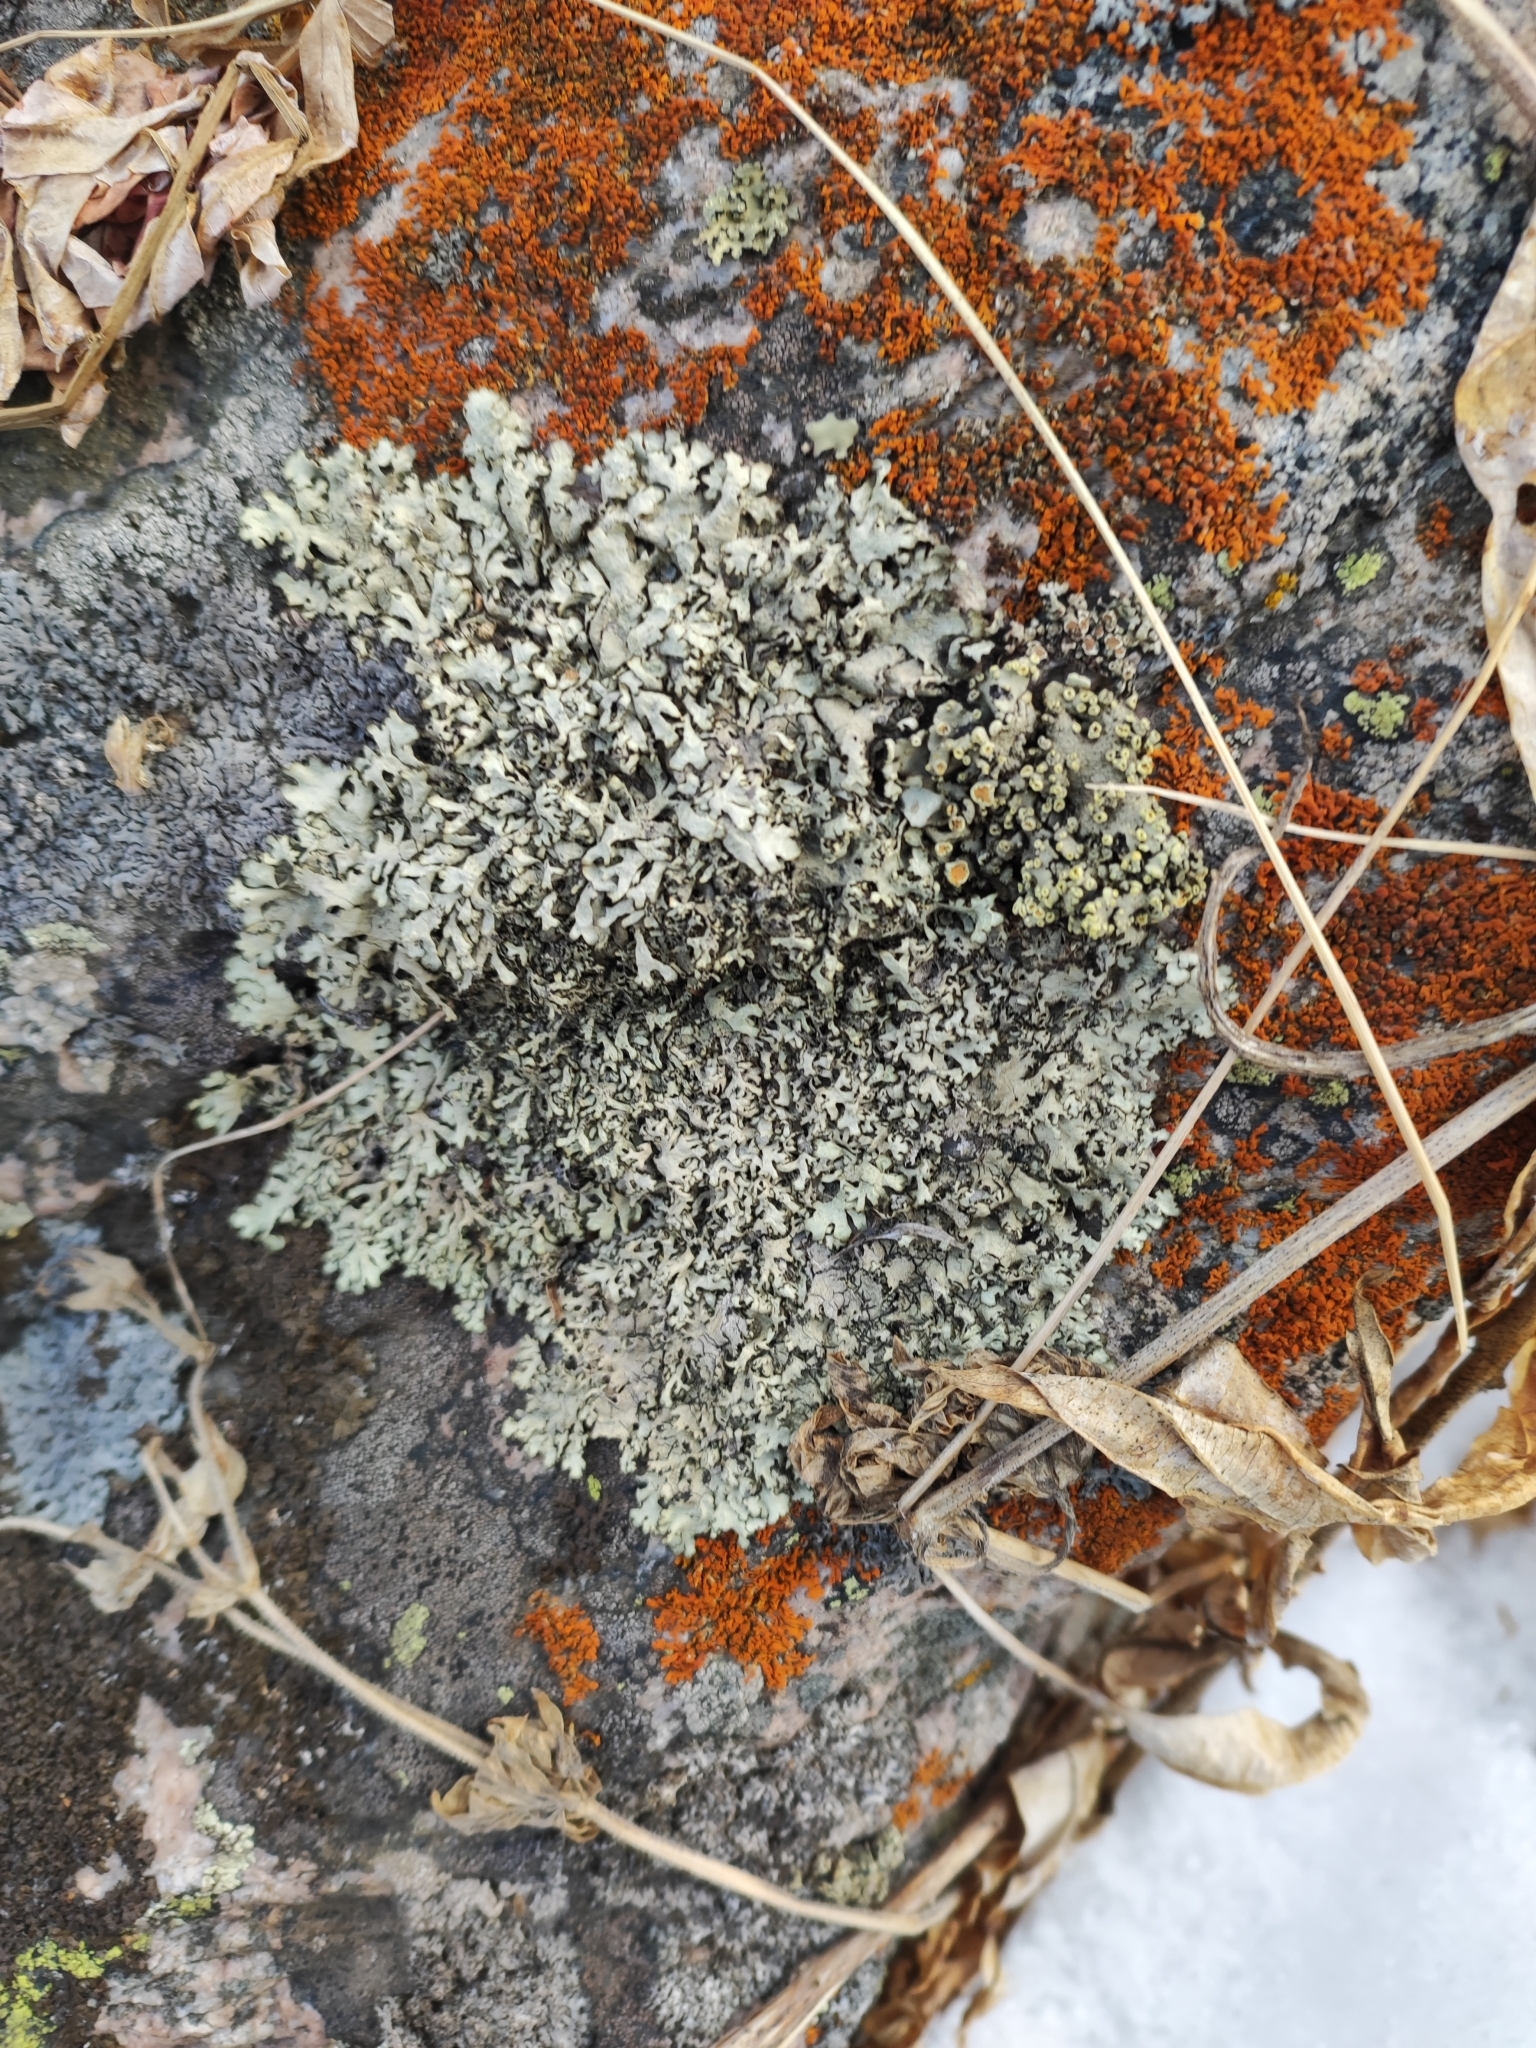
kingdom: Fungi
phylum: Ascomycota
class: Lecanoromycetes
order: Lecanorales
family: Parmeliaceae
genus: Xanthoparmelia
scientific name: Xanthoparmelia stenophylla
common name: Shingled rock shield
